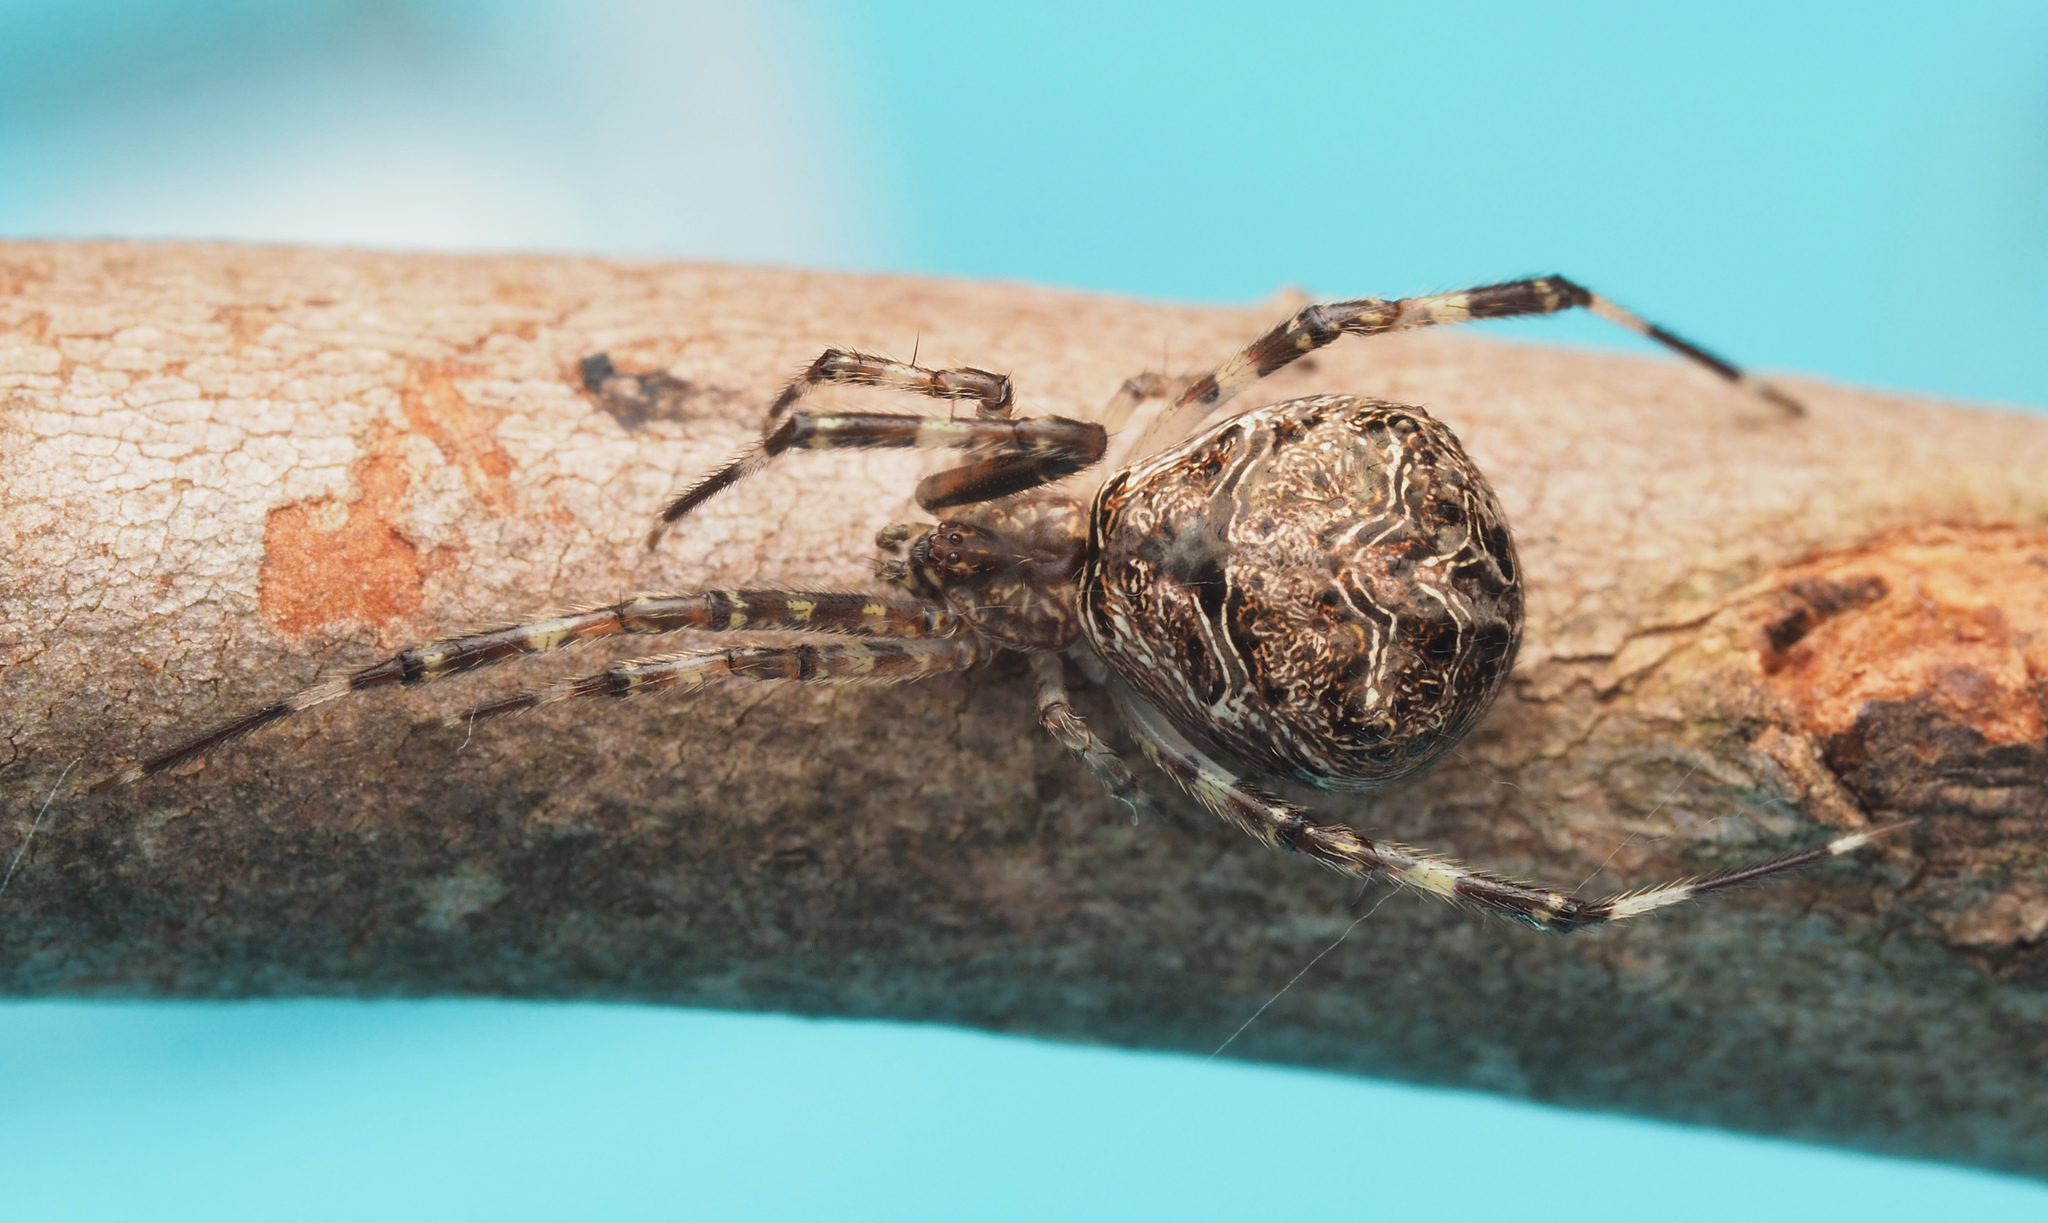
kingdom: Animalia
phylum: Arthropoda
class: Arachnida
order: Araneae
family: Theridiidae
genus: Janula
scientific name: Janula bicornis
